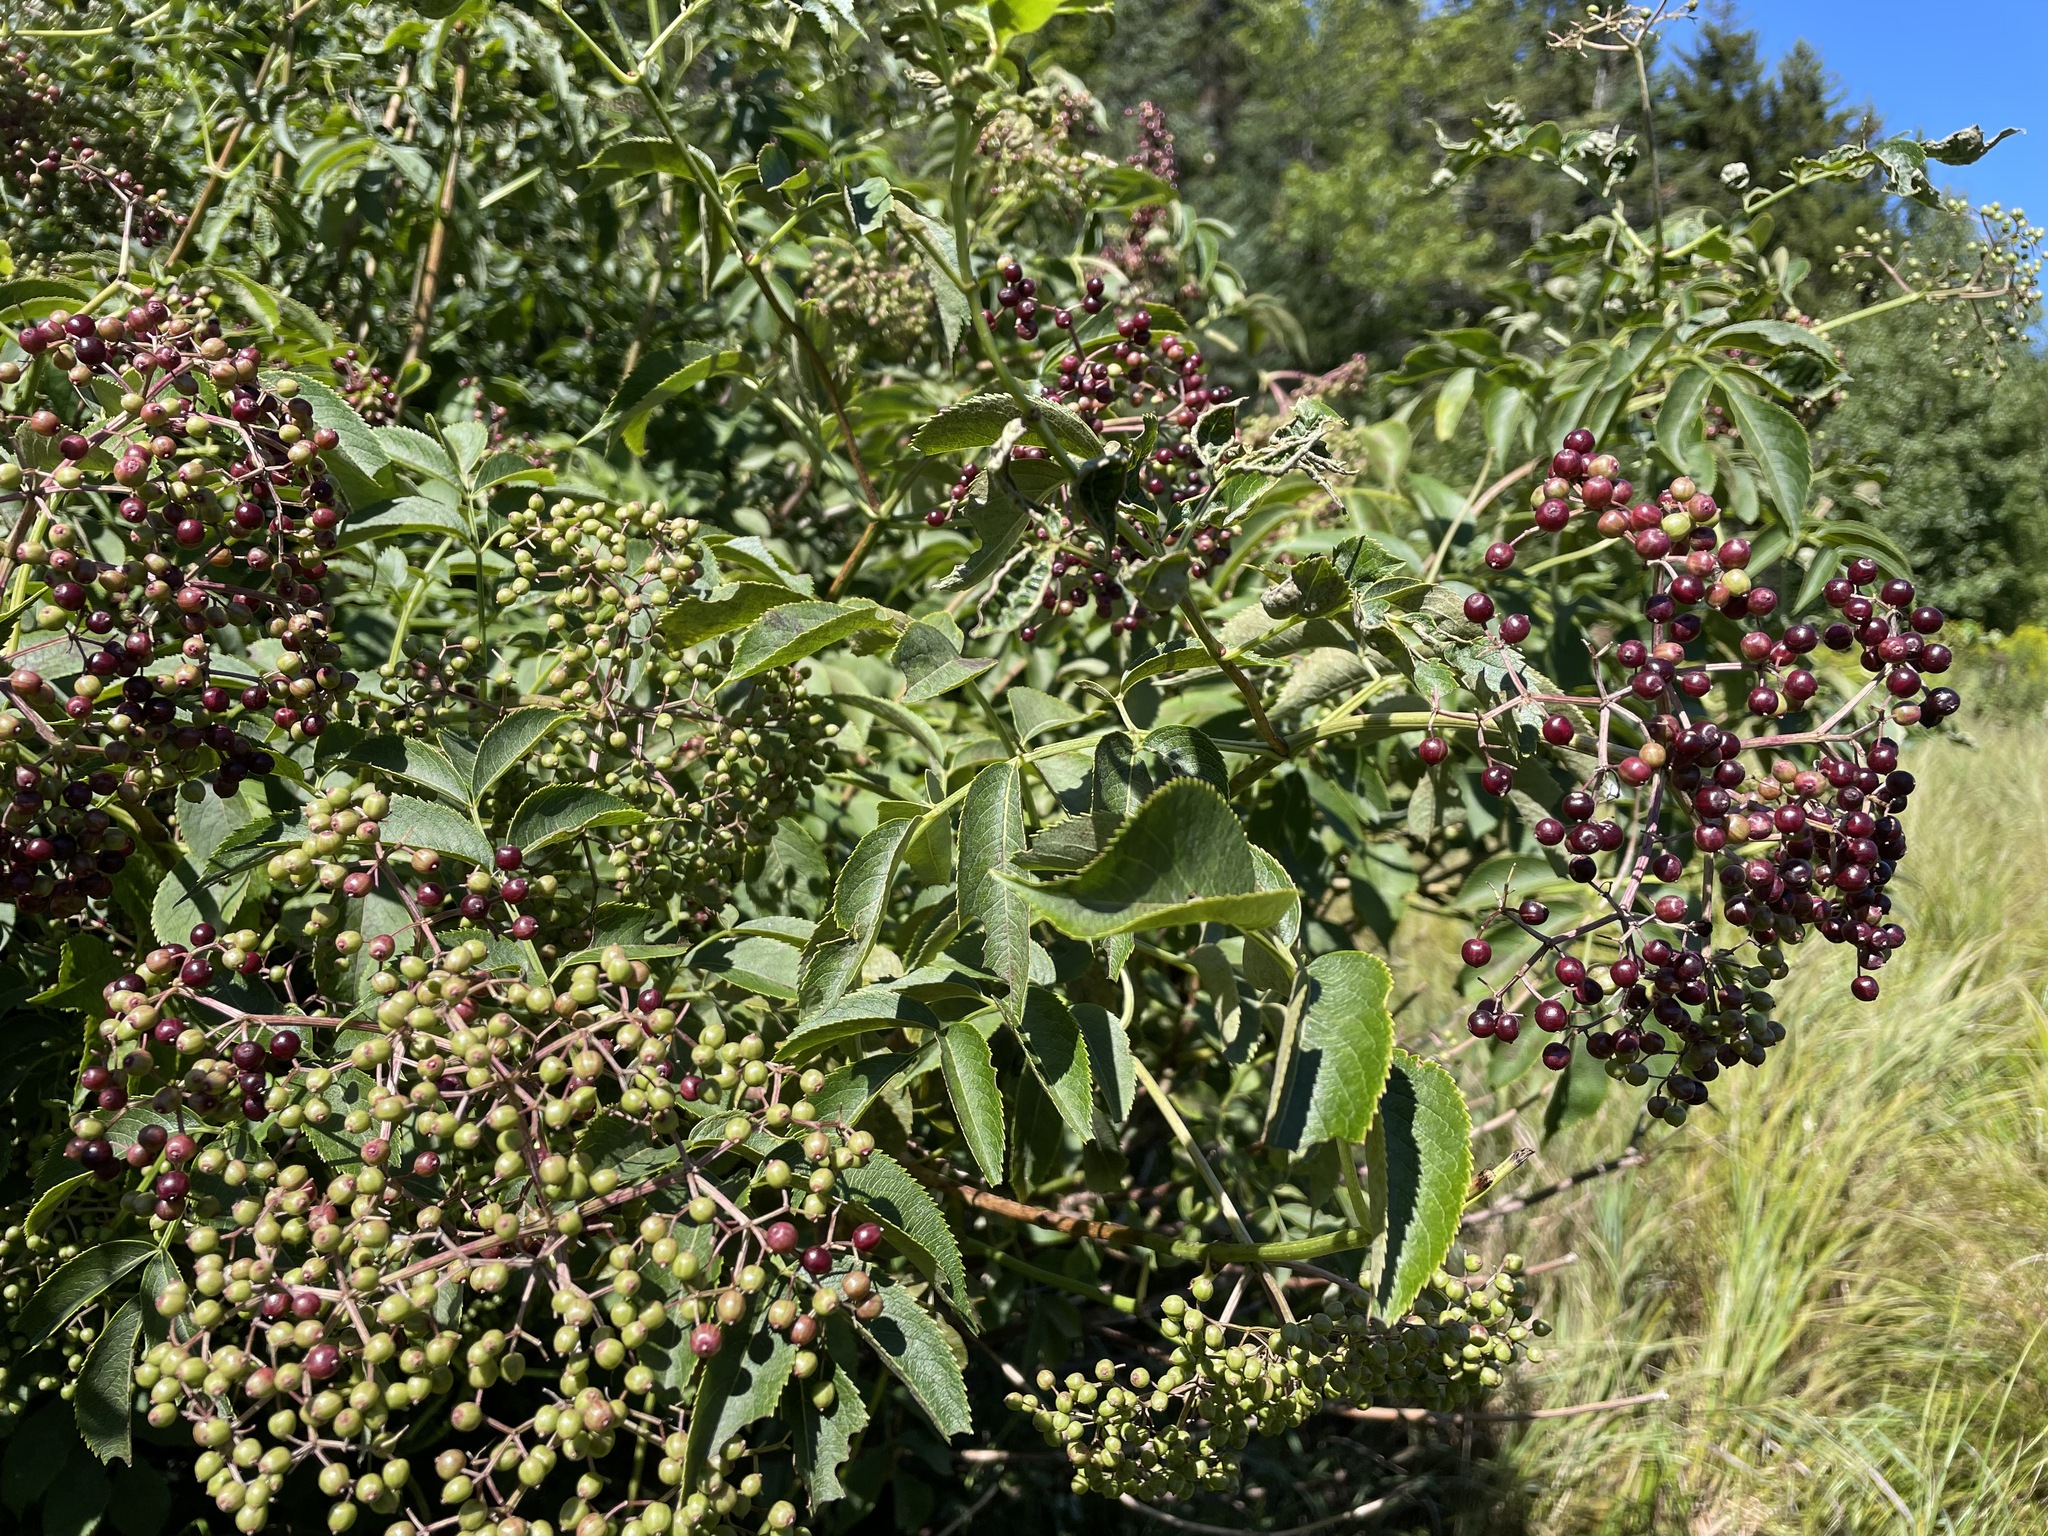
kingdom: Plantae
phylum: Tracheophyta
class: Magnoliopsida
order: Dipsacales
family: Viburnaceae
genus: Sambucus
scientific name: Sambucus canadensis
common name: American elder
